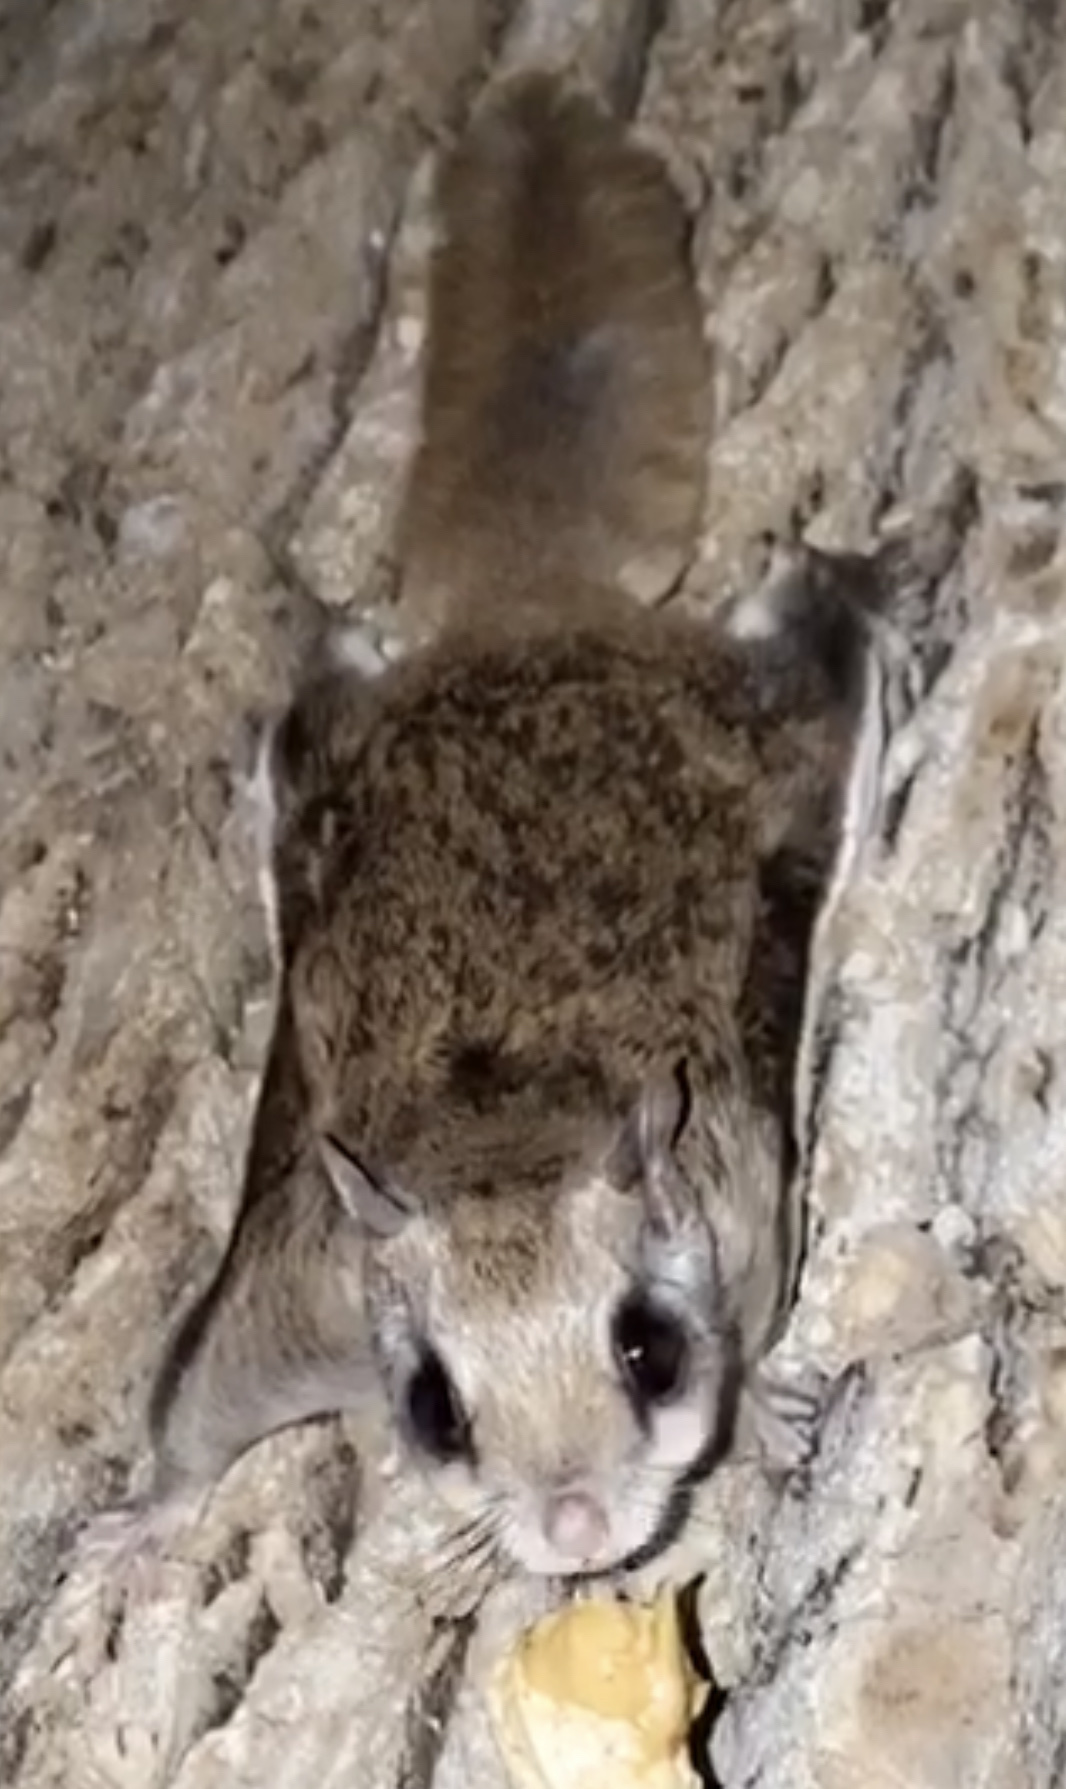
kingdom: Animalia
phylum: Chordata
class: Mammalia
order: Rodentia
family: Sciuridae
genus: Glaucomys
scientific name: Glaucomys volans
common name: Southern flying squirrel
